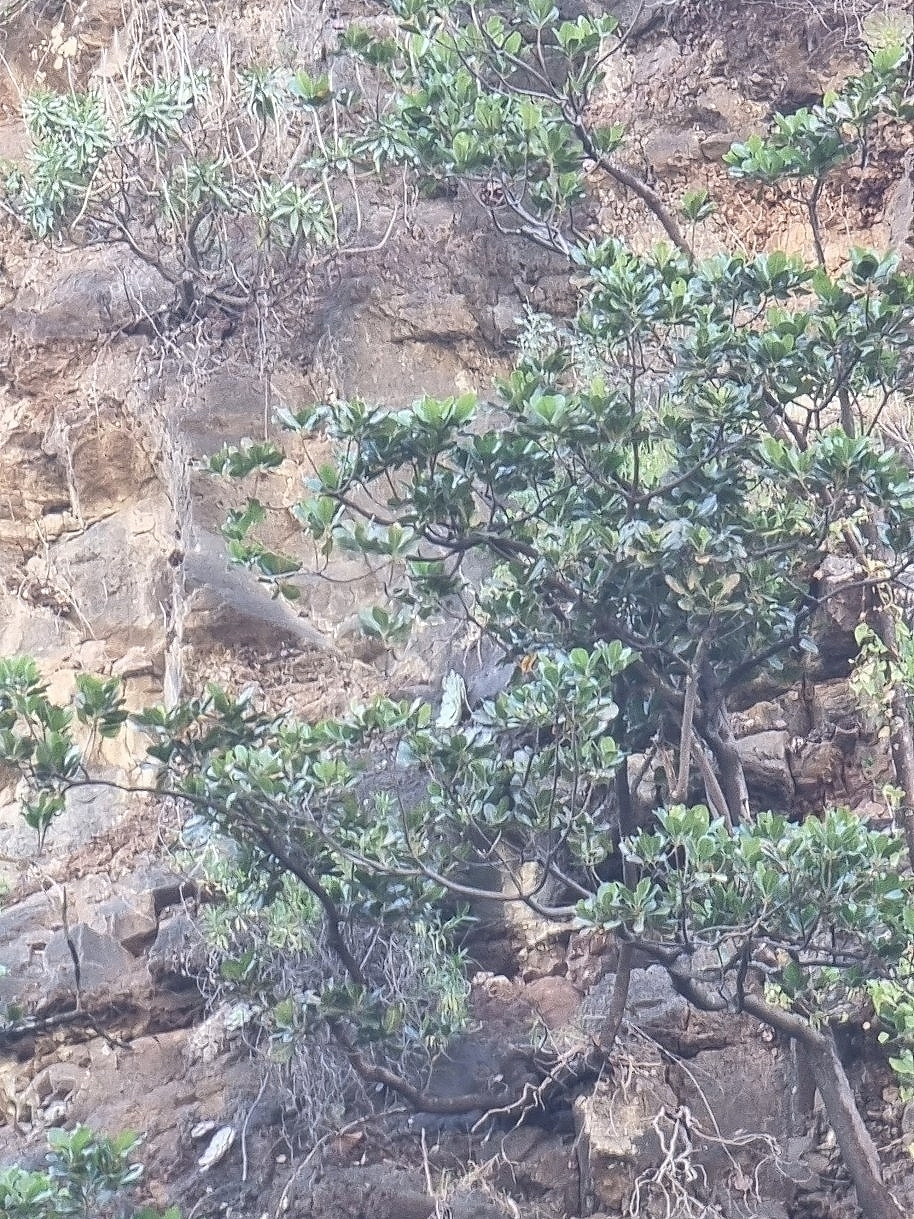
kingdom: Plantae
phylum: Tracheophyta
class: Magnoliopsida
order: Ericales
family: Sapotaceae
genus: Sideroxylon
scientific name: Sideroxylon mirmulans
